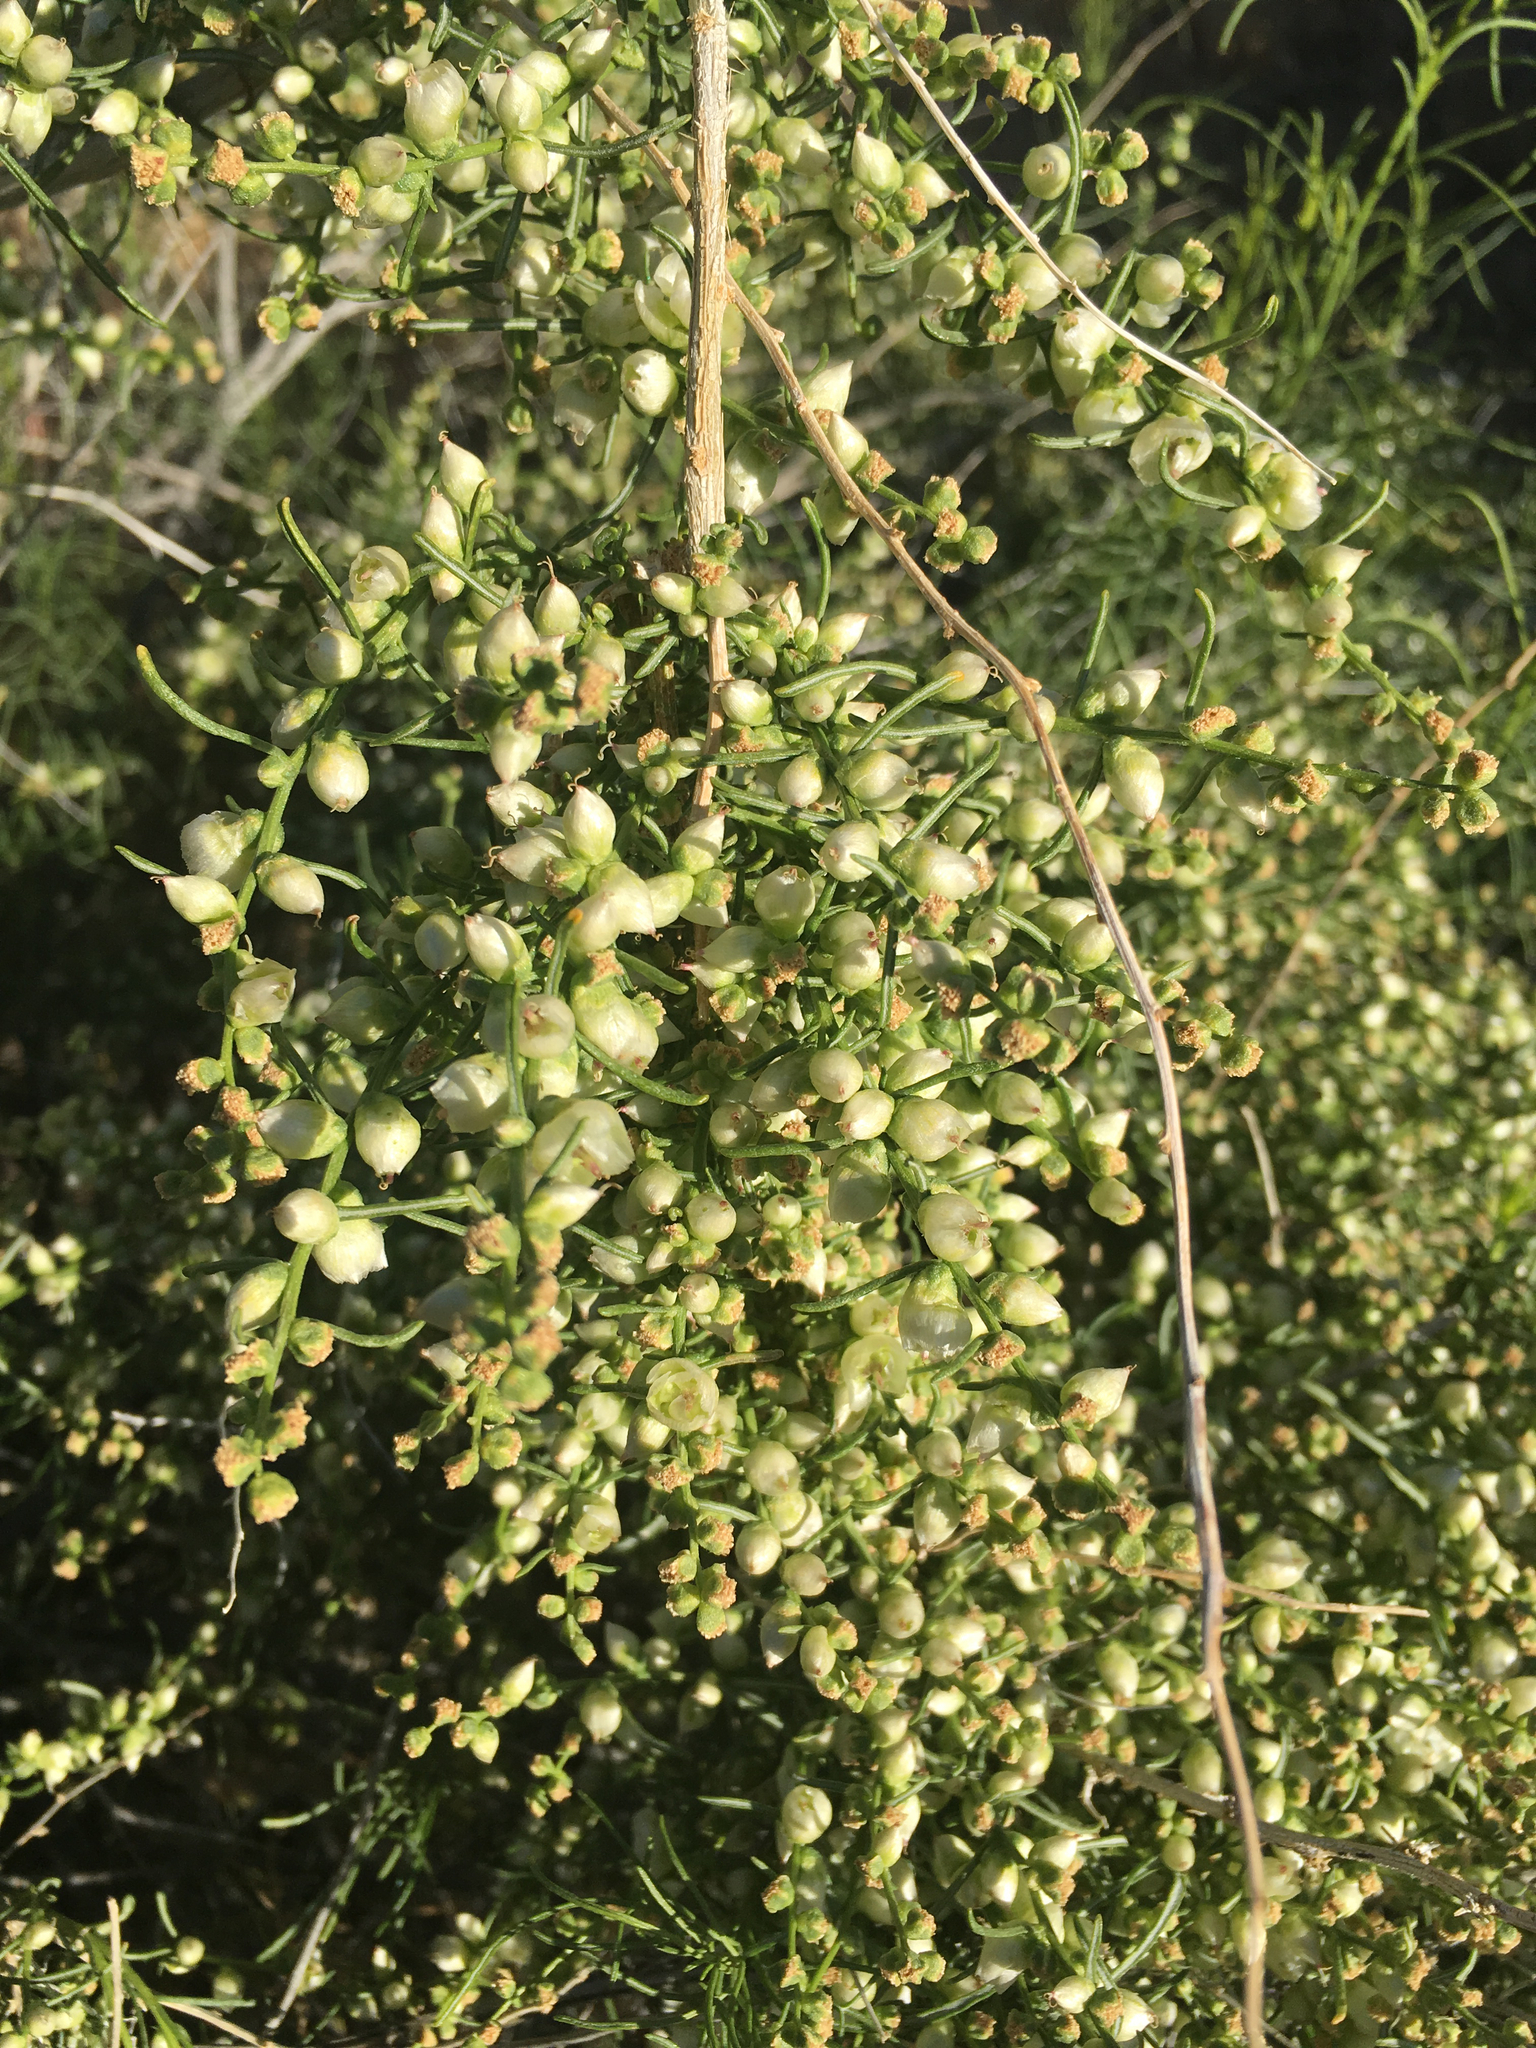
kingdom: Plantae
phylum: Tracheophyta
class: Magnoliopsida
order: Asterales
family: Asteraceae
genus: Ambrosia
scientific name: Ambrosia salsola
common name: Burrobrush
